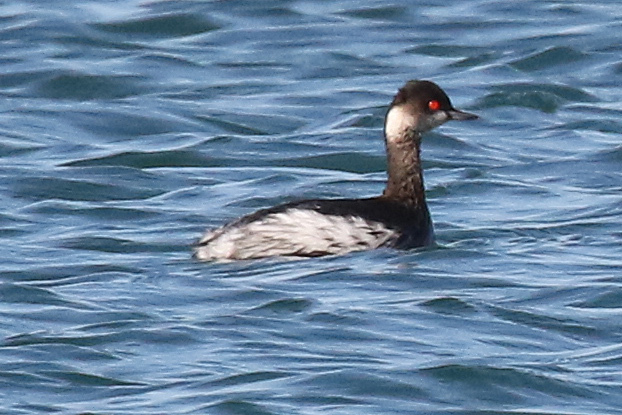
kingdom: Animalia
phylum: Chordata
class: Aves
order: Podicipediformes
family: Podicipedidae
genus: Podiceps
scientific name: Podiceps nigricollis
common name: Black-necked grebe
